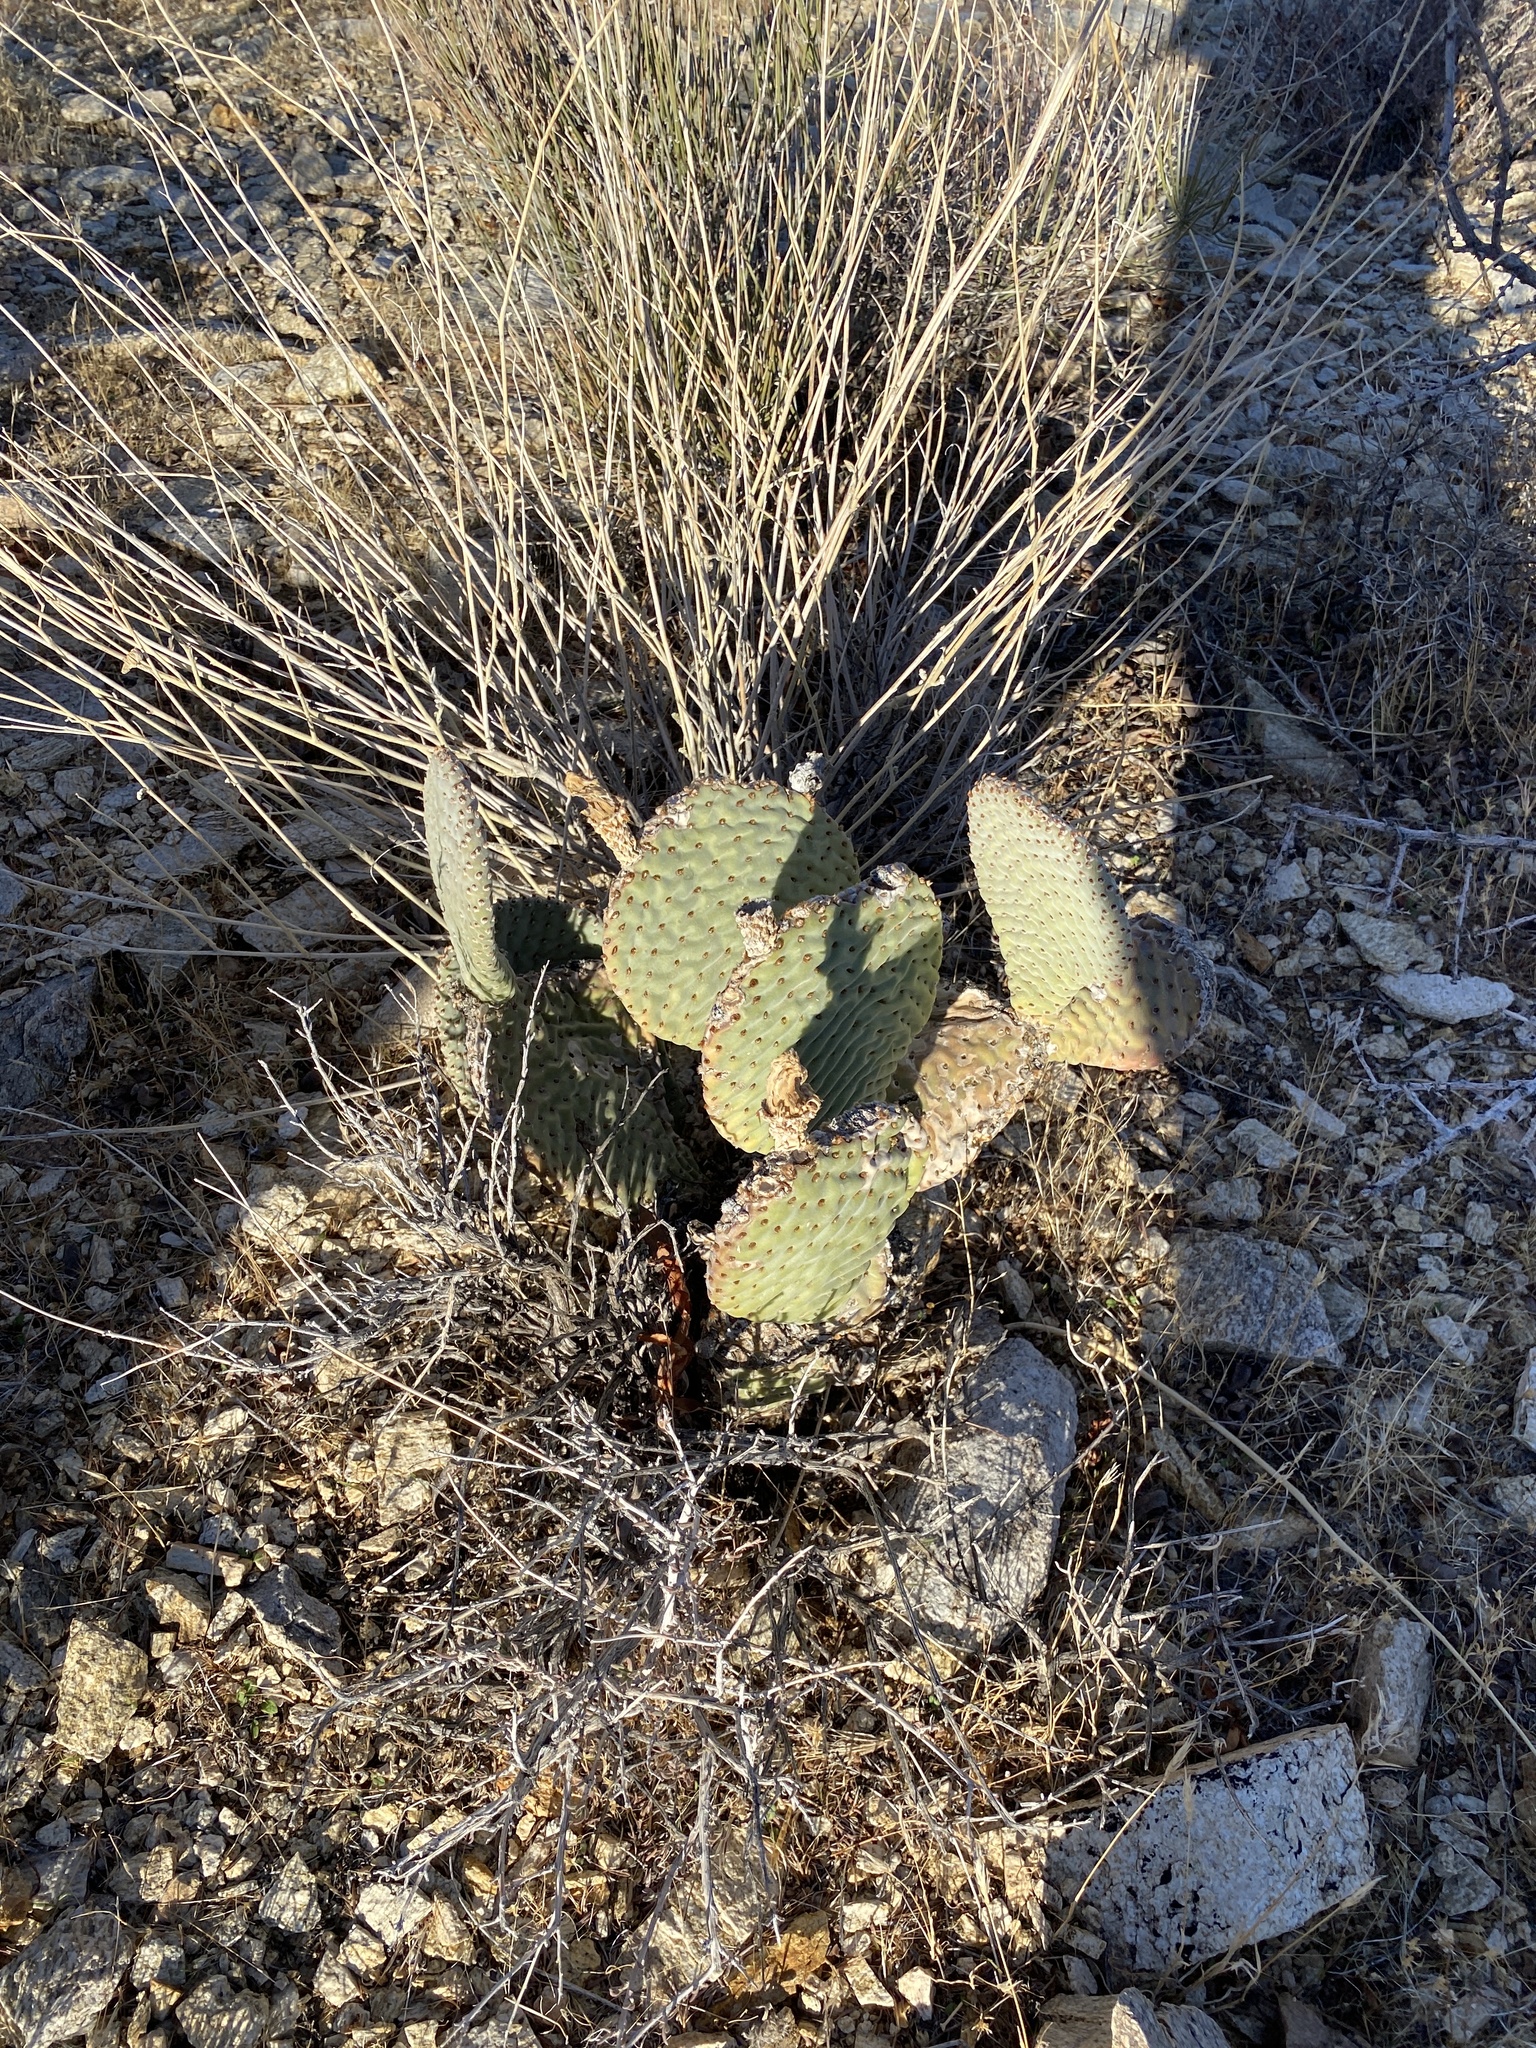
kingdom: Plantae
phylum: Tracheophyta
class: Magnoliopsida
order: Caryophyllales
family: Cactaceae
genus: Opuntia
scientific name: Opuntia basilaris
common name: Beavertail prickly-pear
